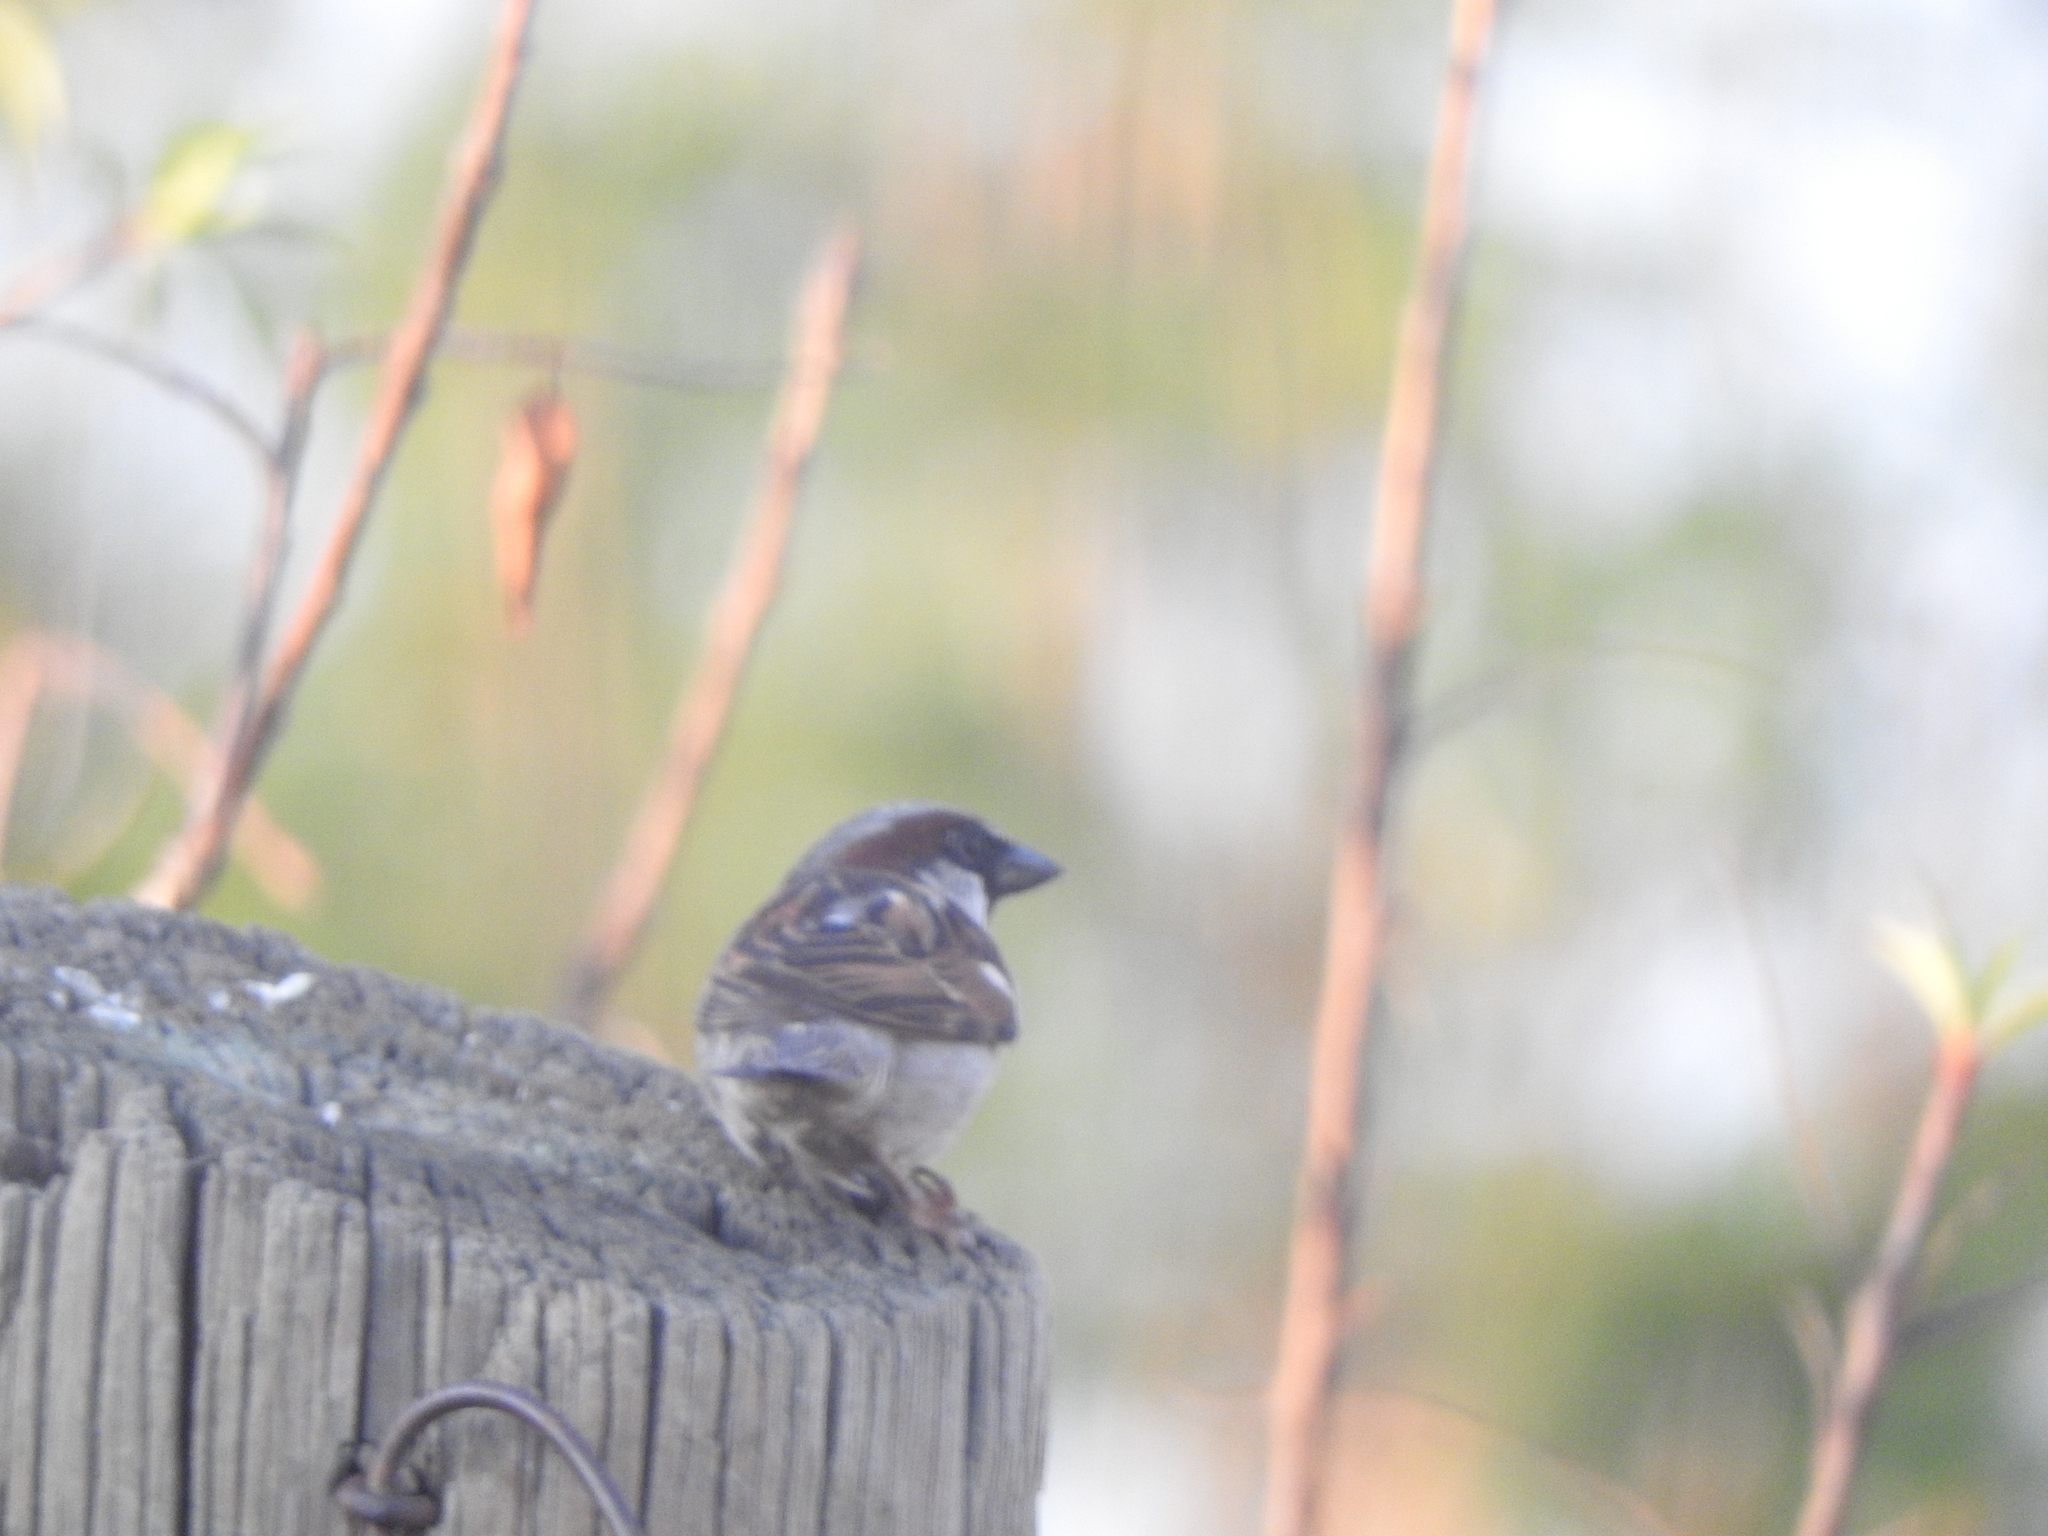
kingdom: Animalia
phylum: Chordata
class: Aves
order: Passeriformes
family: Passeridae
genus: Passer
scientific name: Passer domesticus
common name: House sparrow
